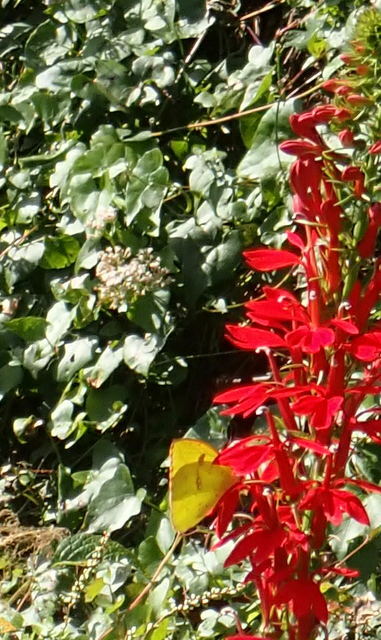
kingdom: Animalia
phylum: Arthropoda
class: Insecta
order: Lepidoptera
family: Pieridae
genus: Phoebis
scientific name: Phoebis sennae
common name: Cloudless sulphur
